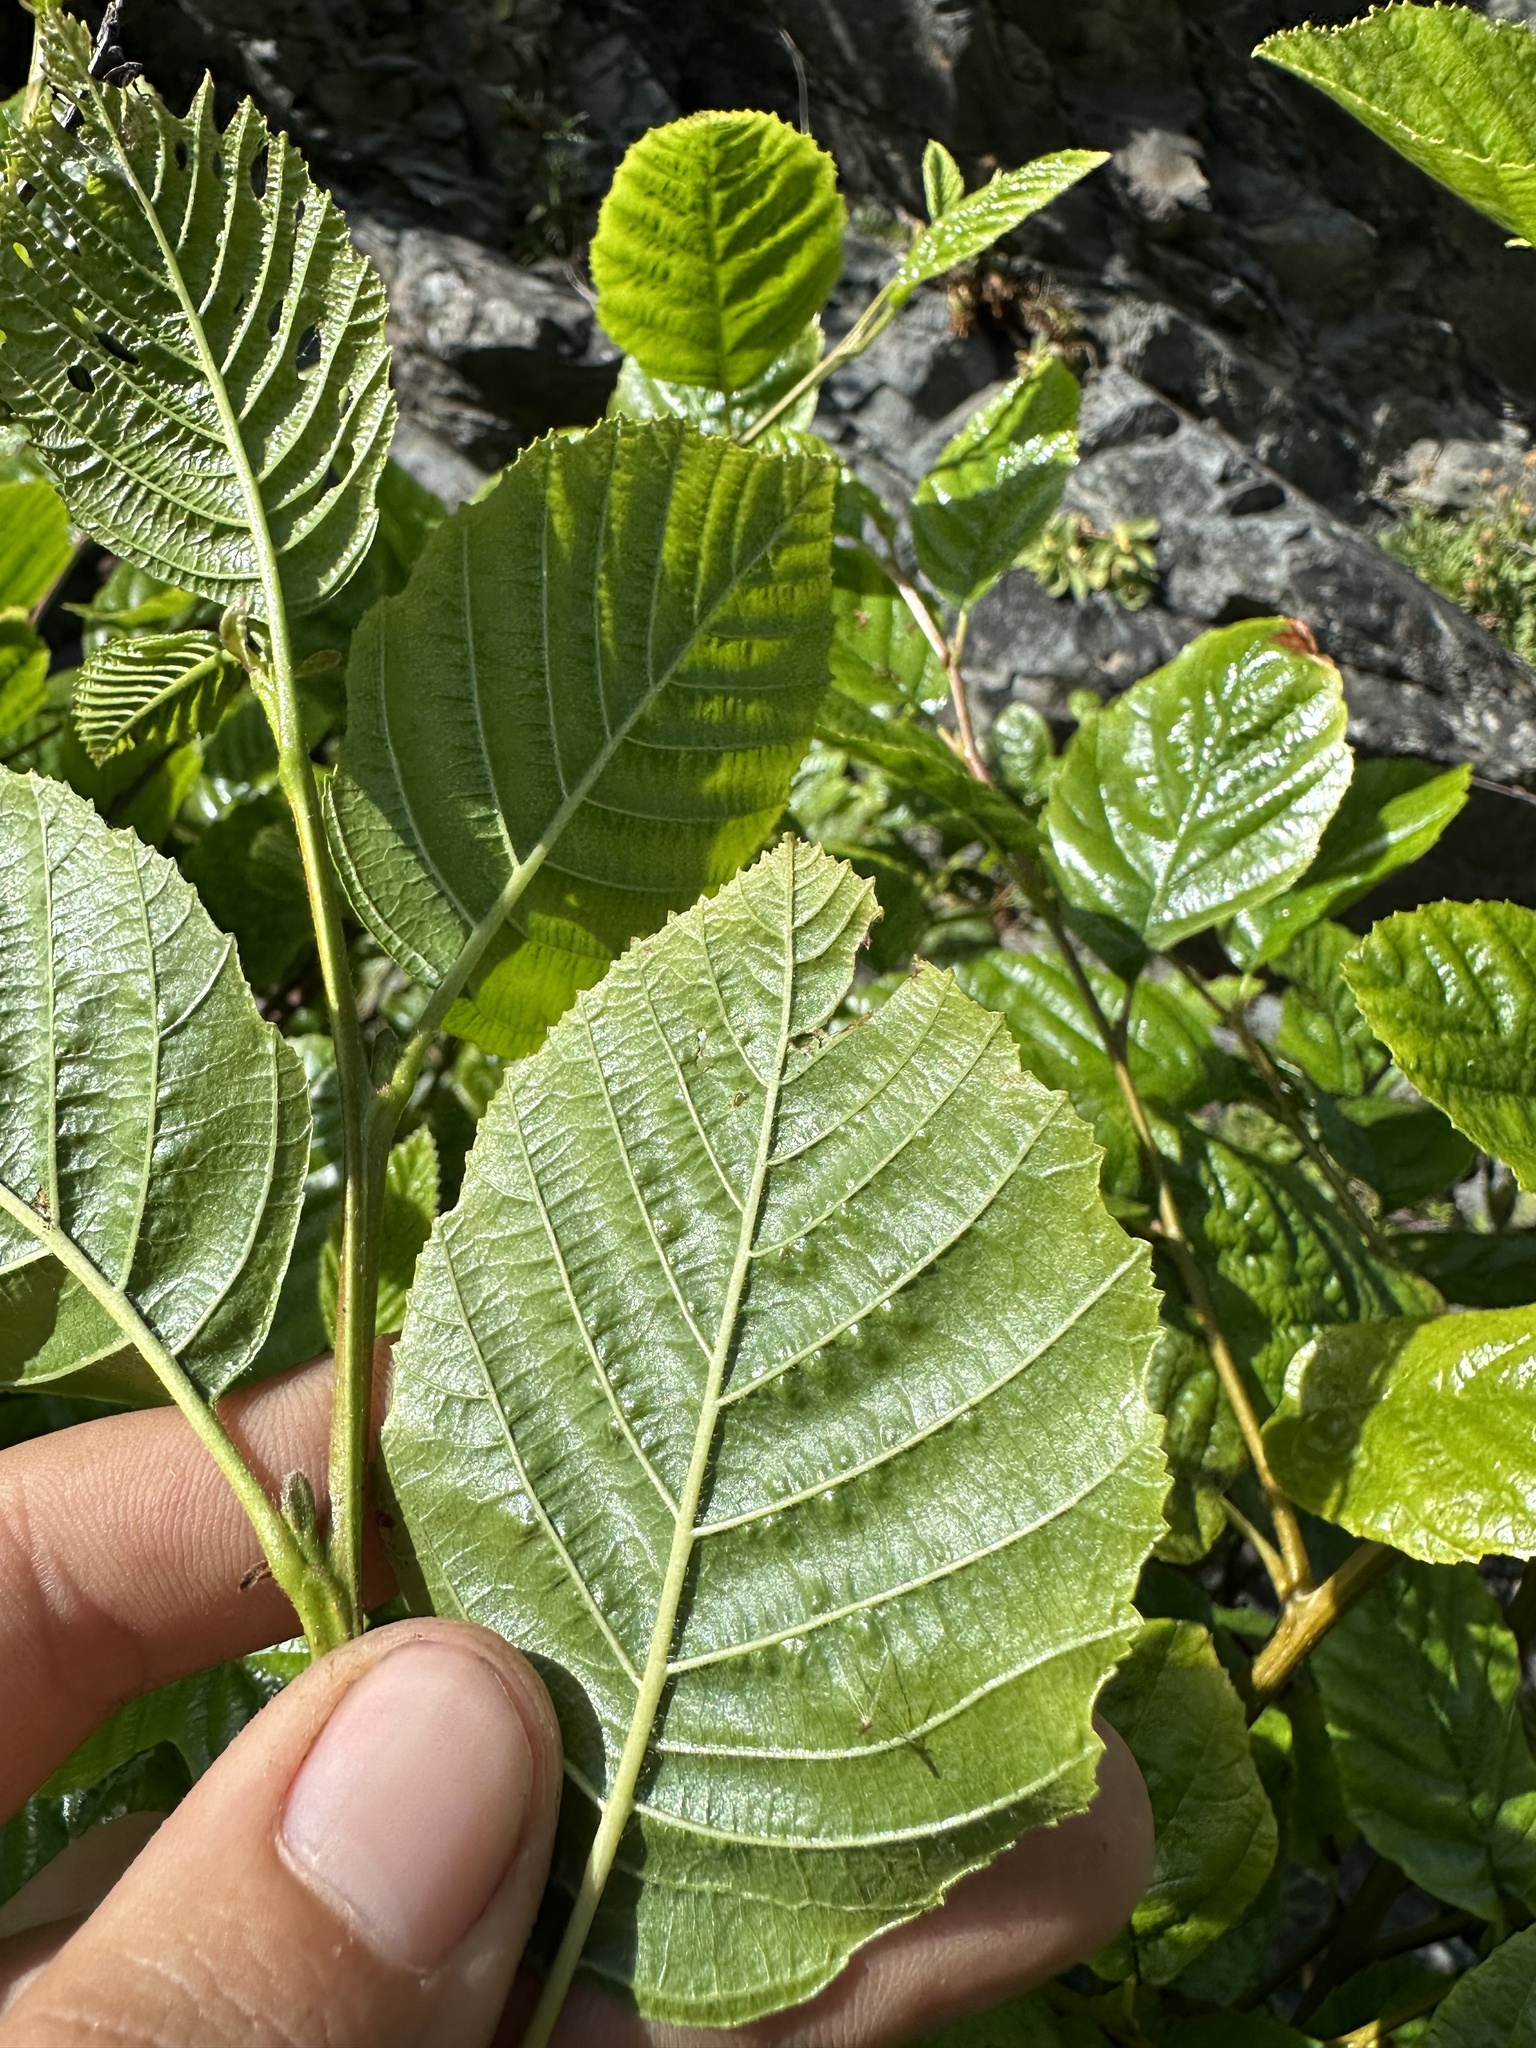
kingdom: Plantae
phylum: Tracheophyta
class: Magnoliopsida
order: Fagales
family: Betulaceae
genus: Alnus
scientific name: Alnus rhombifolia
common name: California alder
